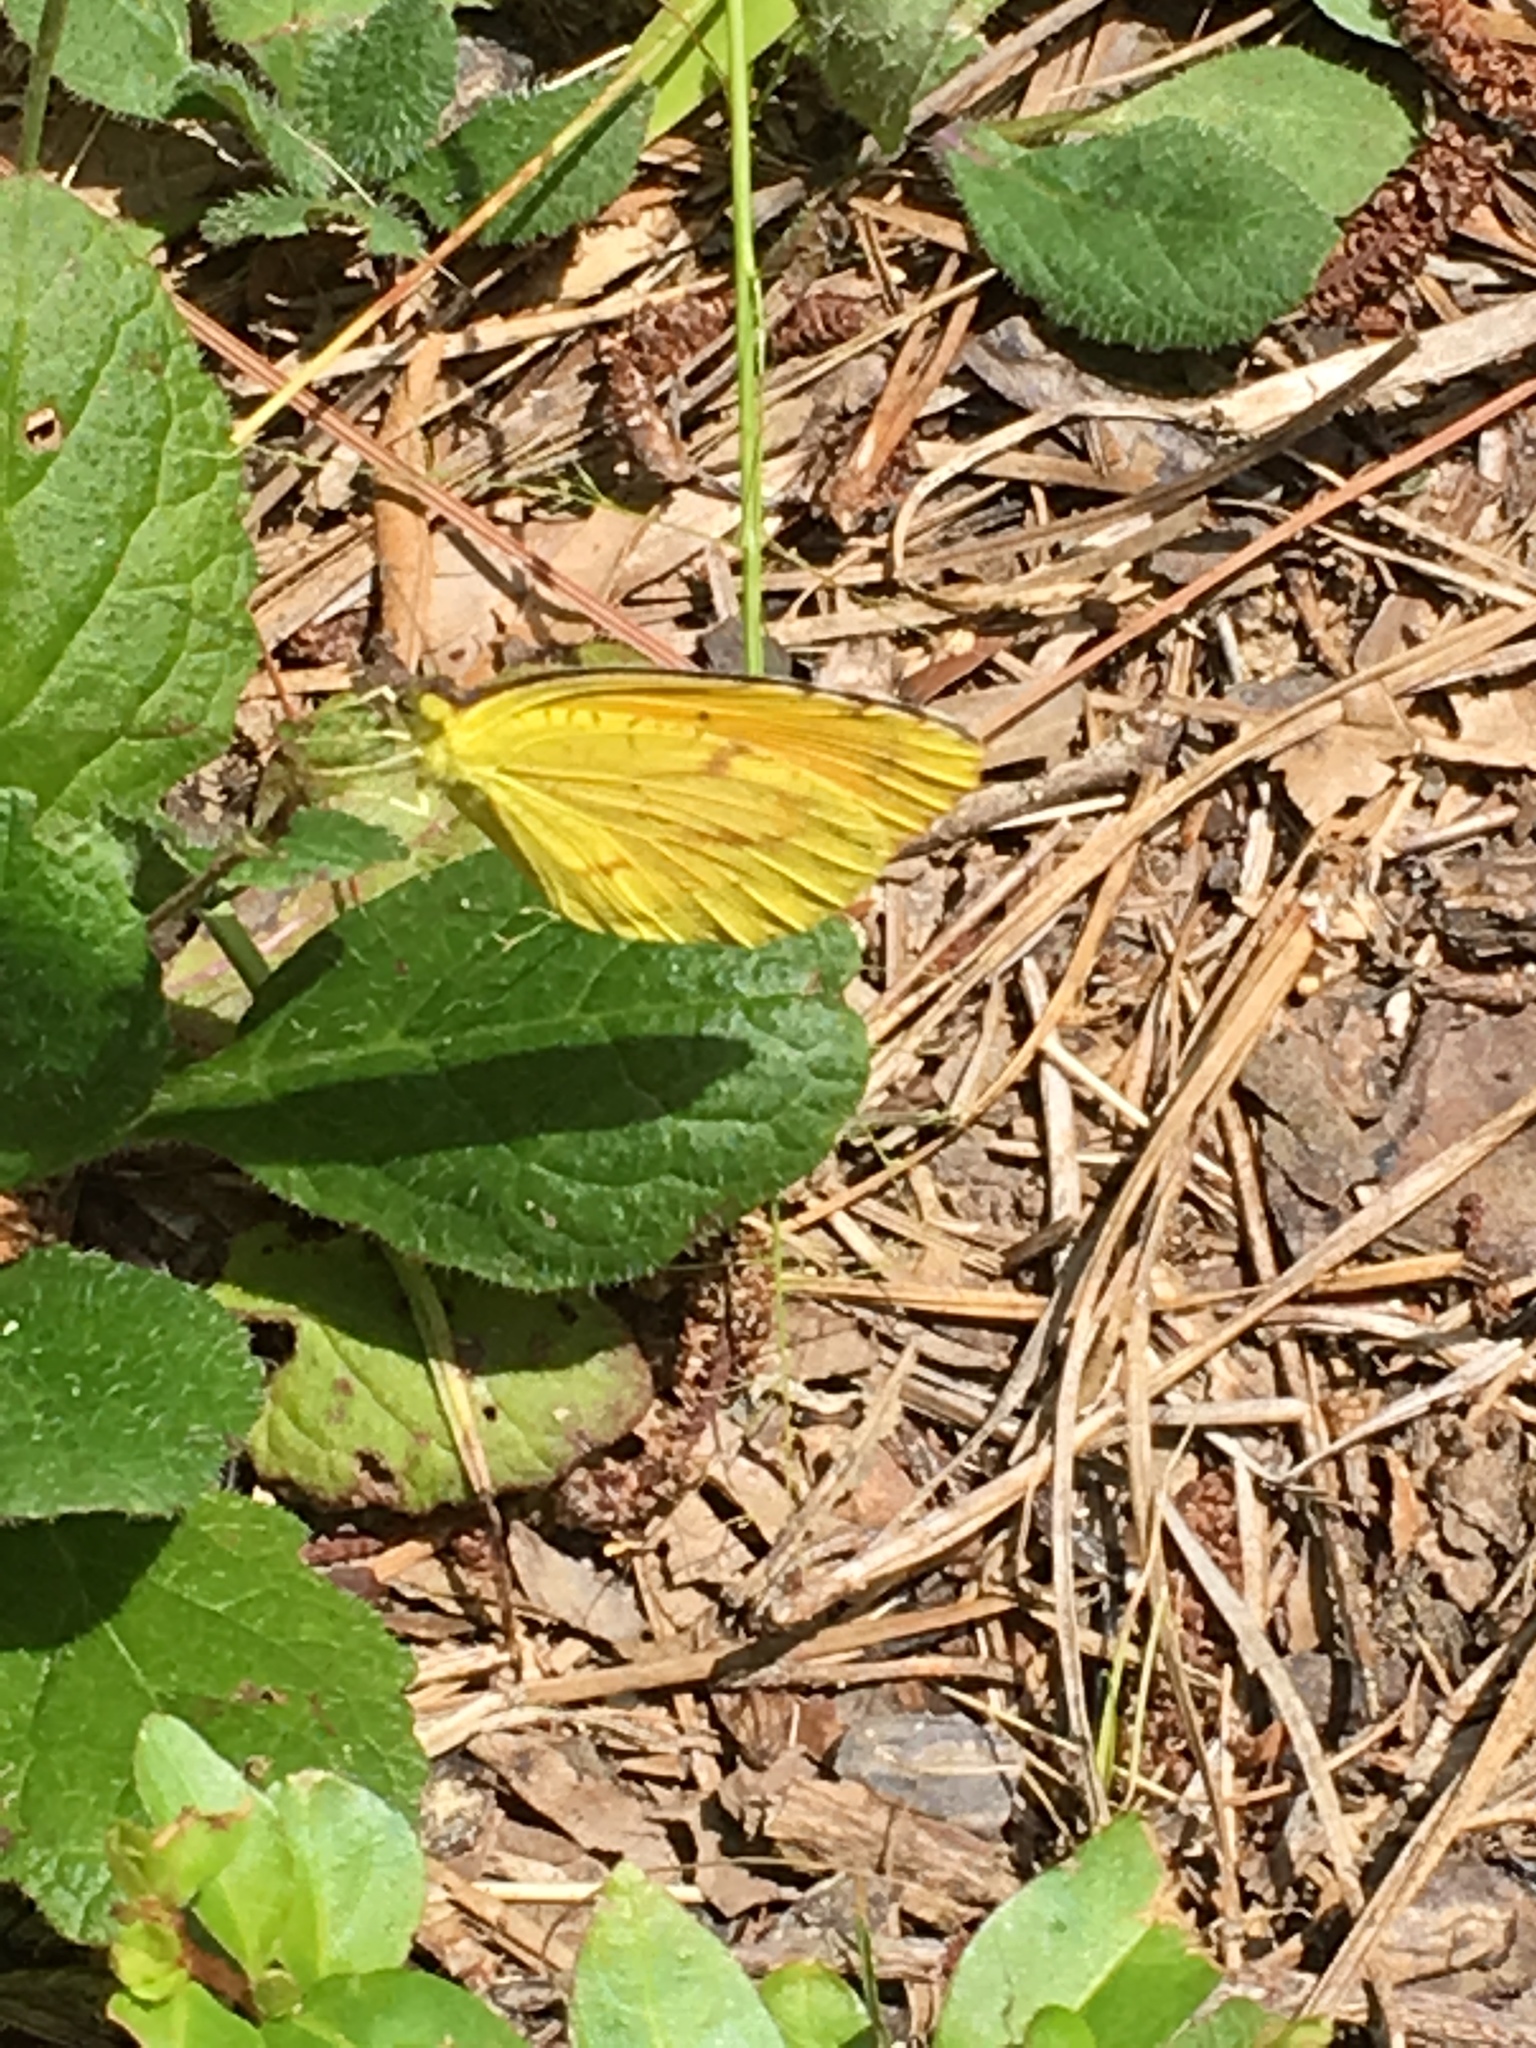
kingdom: Animalia
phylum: Arthropoda
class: Insecta
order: Lepidoptera
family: Pieridae
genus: Abaeis
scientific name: Abaeis nicippe
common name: Sleepy orange
